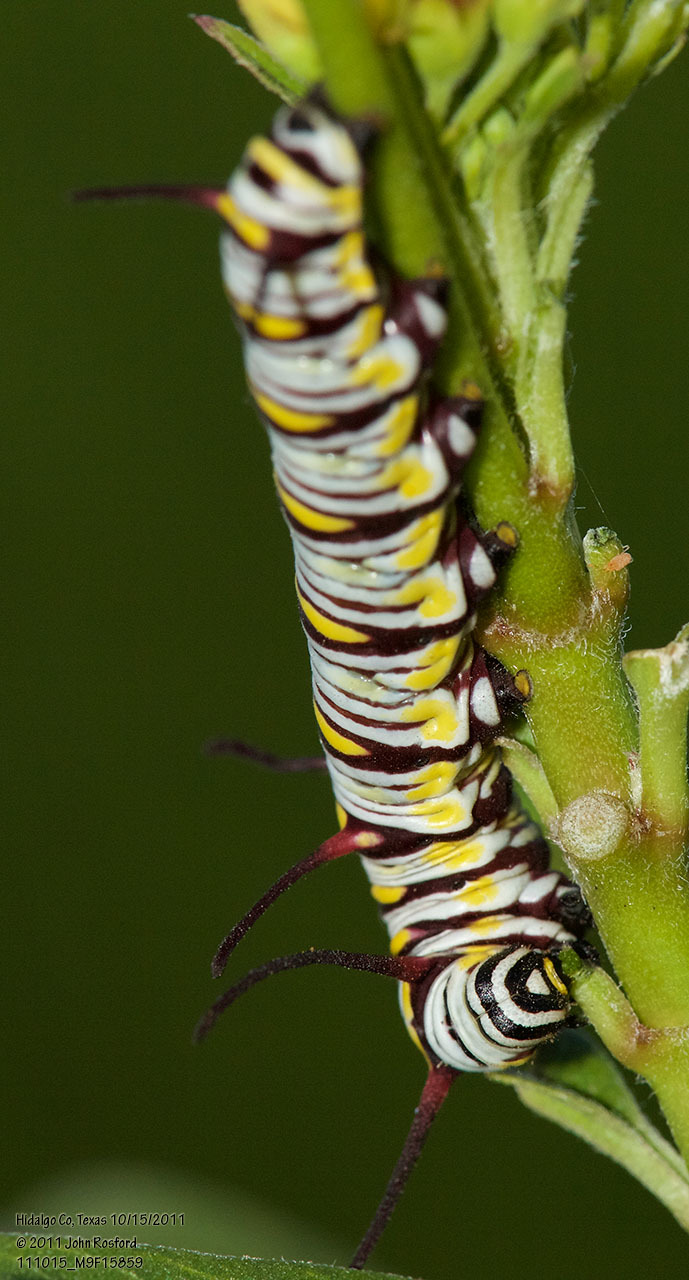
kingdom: Animalia
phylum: Arthropoda
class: Insecta
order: Lepidoptera
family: Nymphalidae
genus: Danaus
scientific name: Danaus gilippus
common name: Queen
